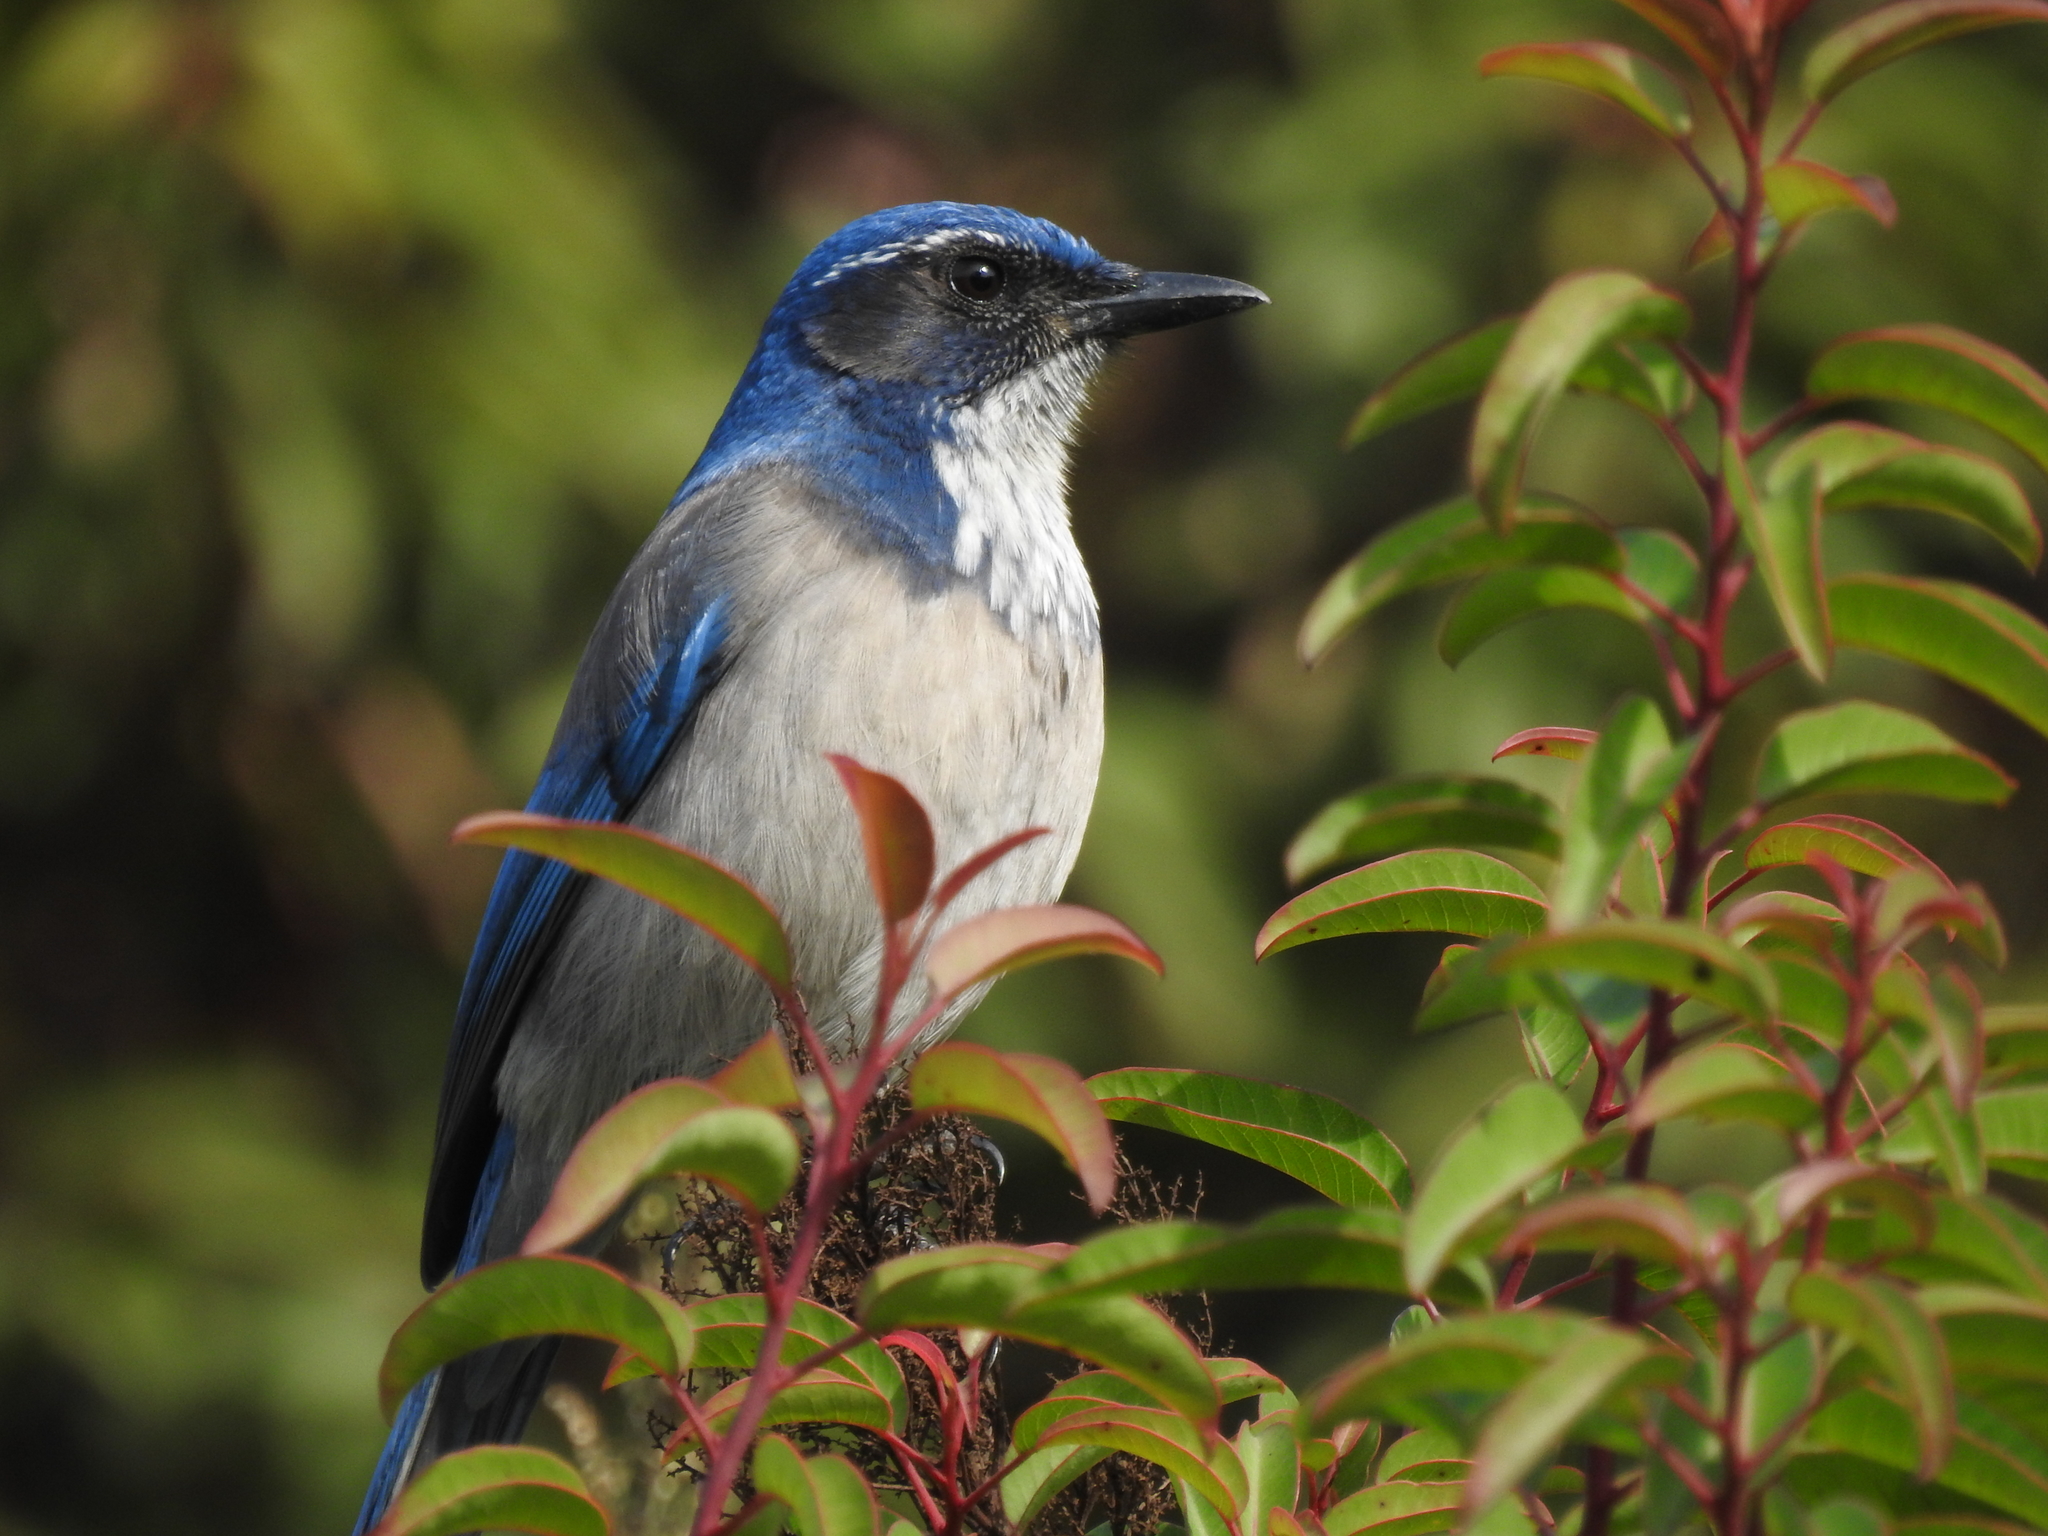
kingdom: Animalia
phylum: Chordata
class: Aves
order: Passeriformes
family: Corvidae
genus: Aphelocoma
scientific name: Aphelocoma californica
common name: California scrub-jay
